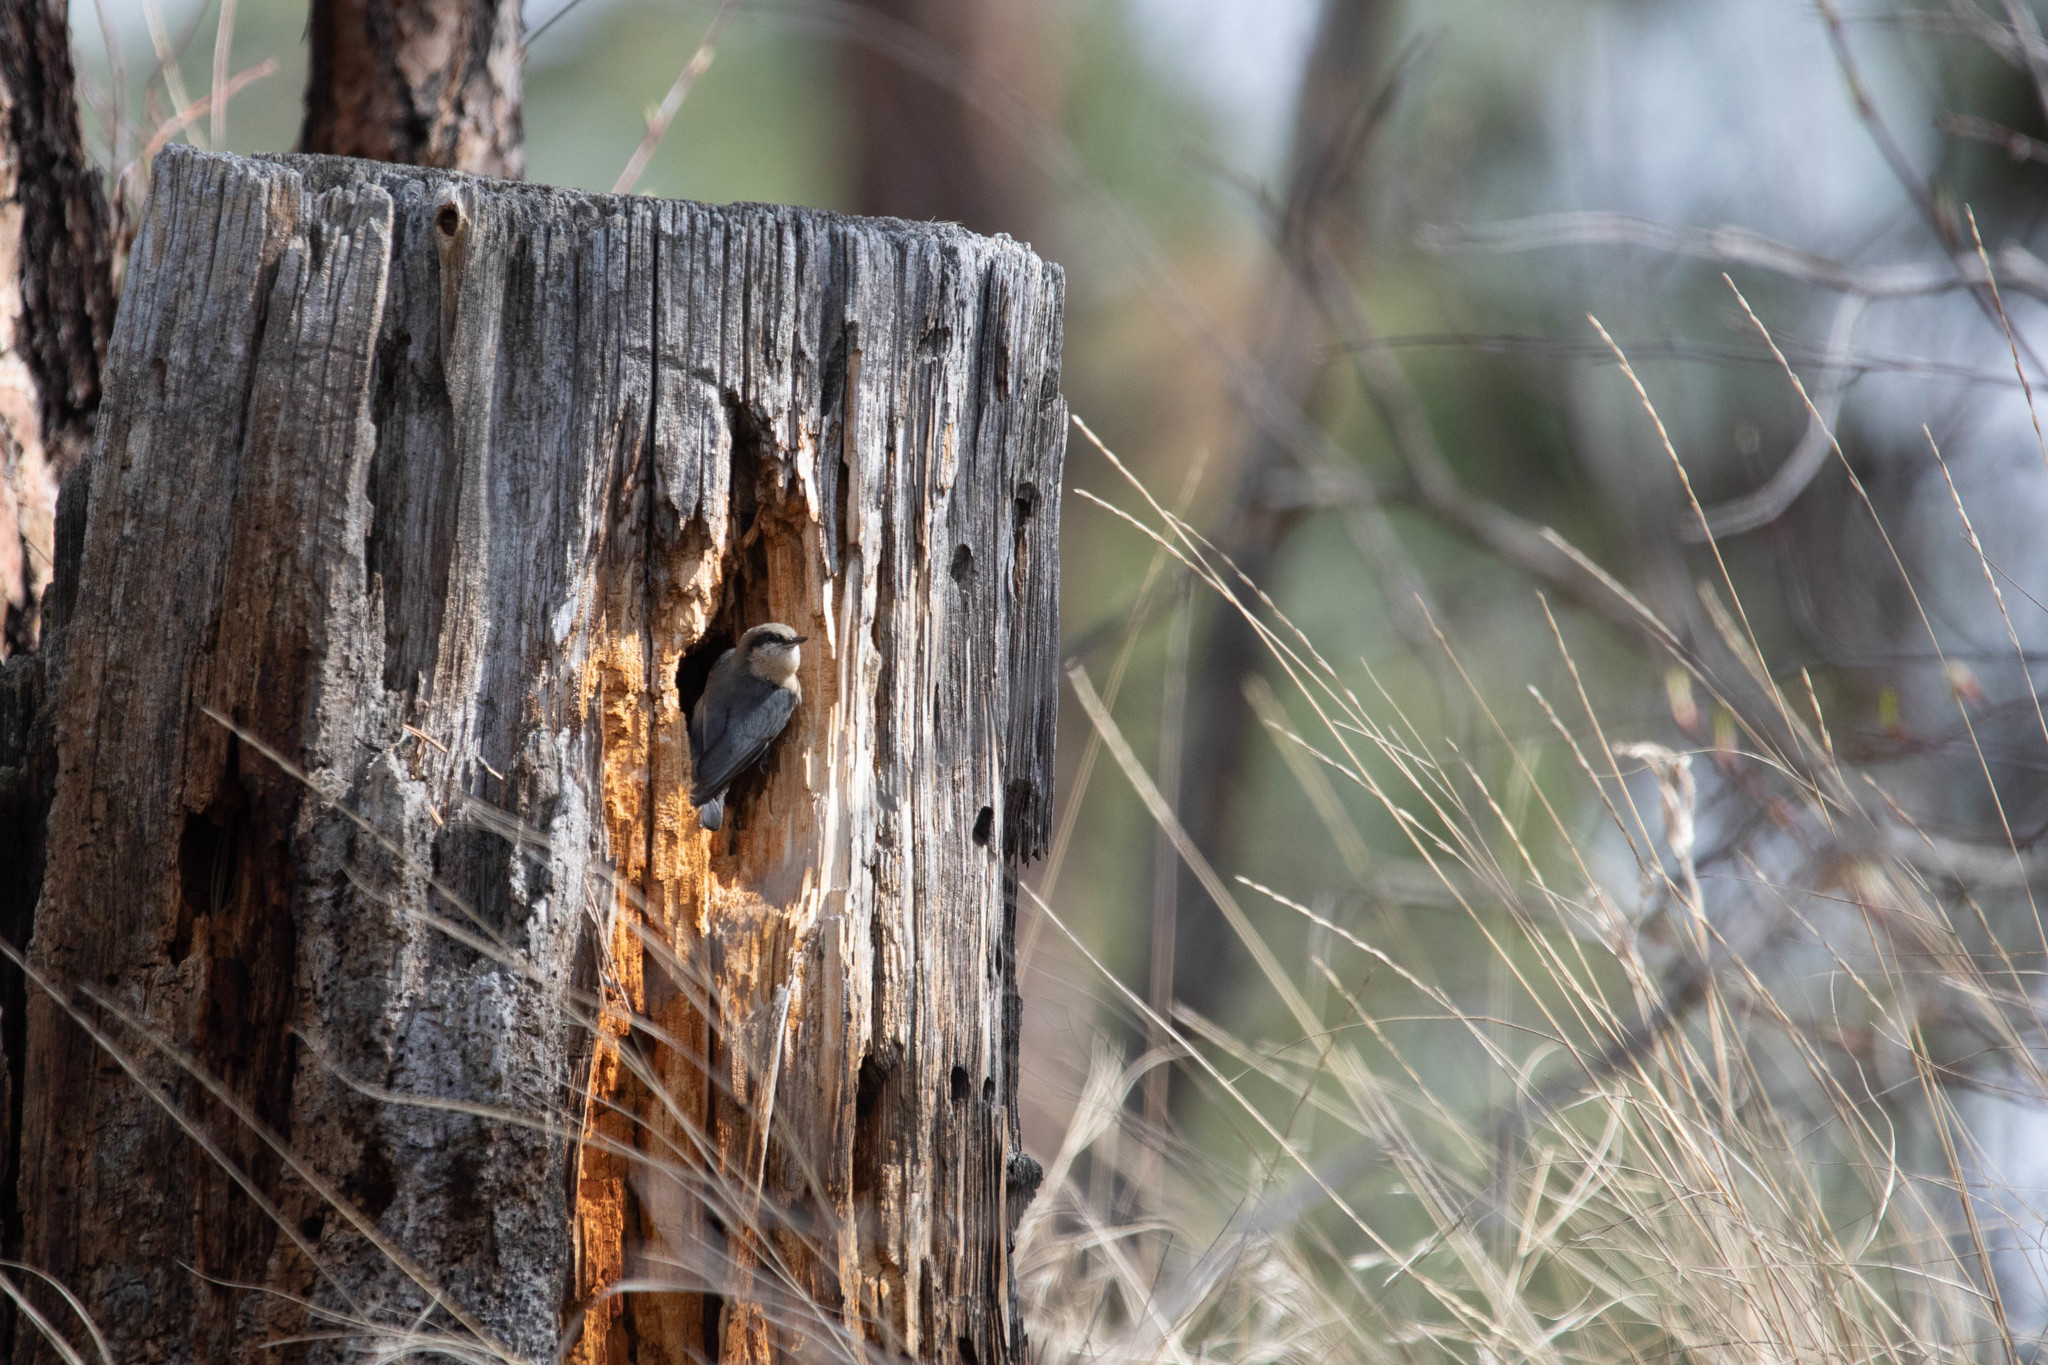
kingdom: Animalia
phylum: Chordata
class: Aves
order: Passeriformes
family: Sittidae
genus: Sitta
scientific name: Sitta pygmaea
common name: Pygmy nuthatch
